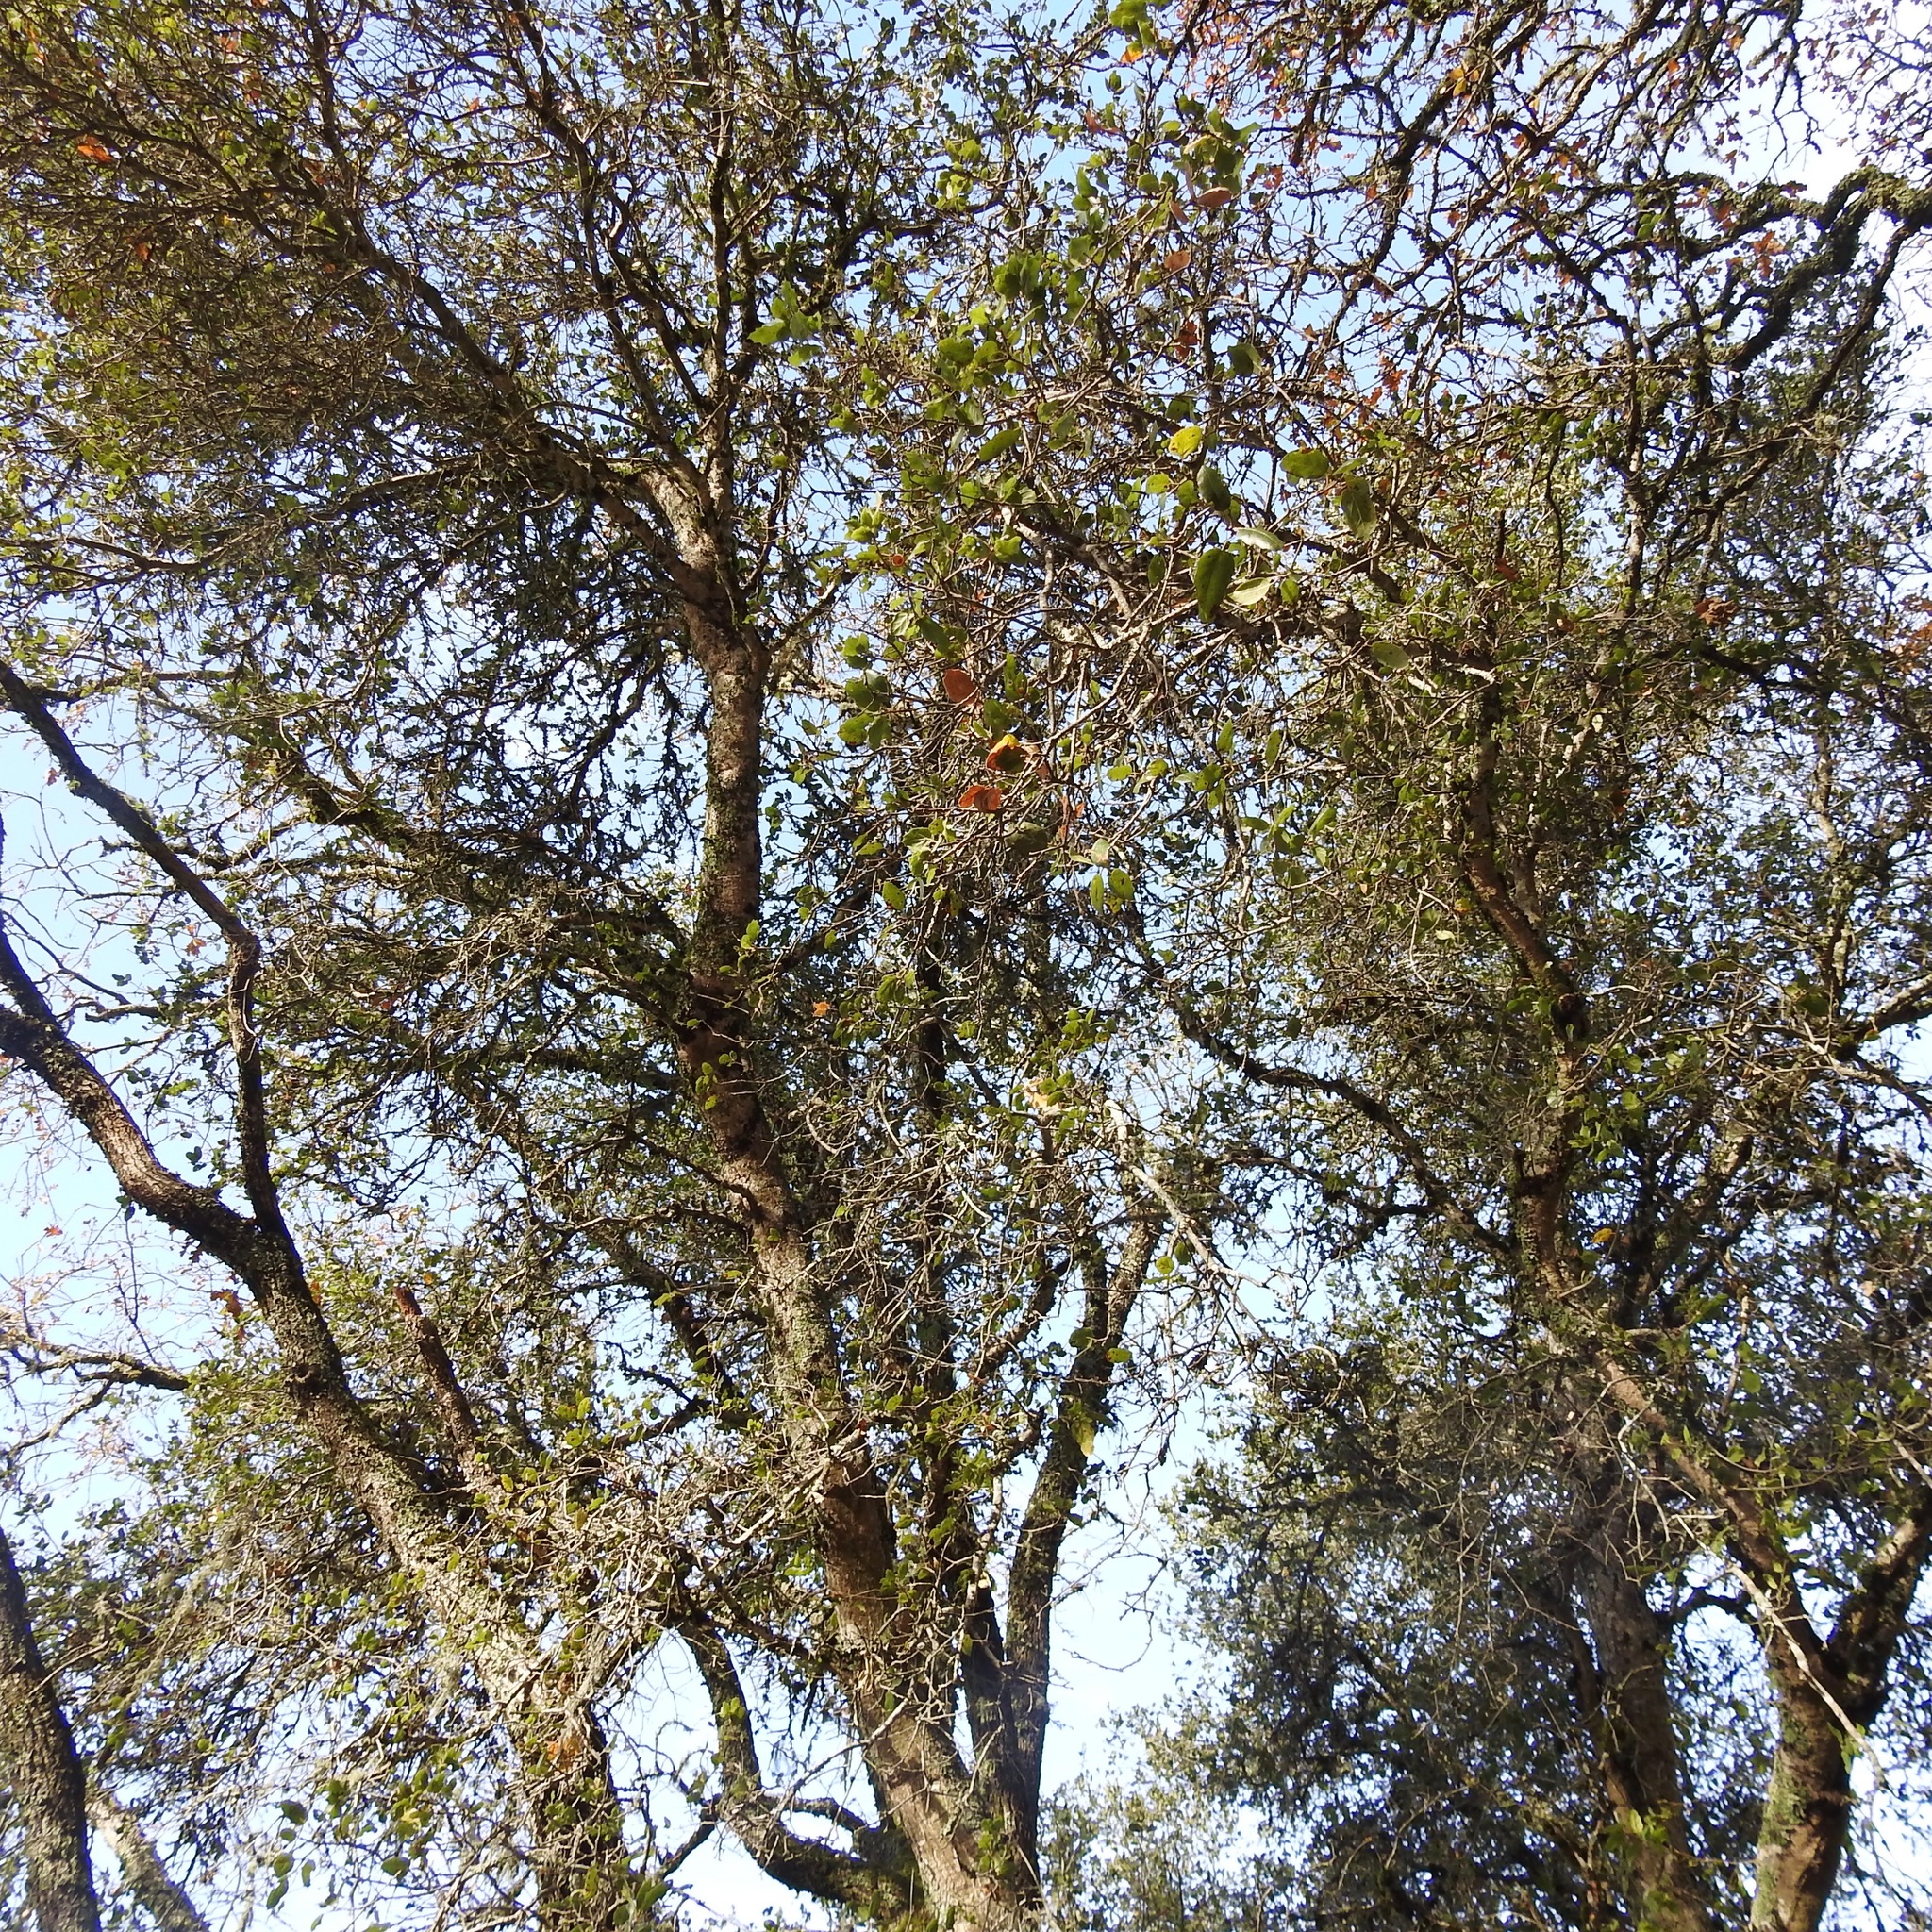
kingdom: Plantae
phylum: Tracheophyta
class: Magnoliopsida
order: Fagales
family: Fagaceae
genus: Quercus
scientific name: Quercus agrifolia
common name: California live oak
